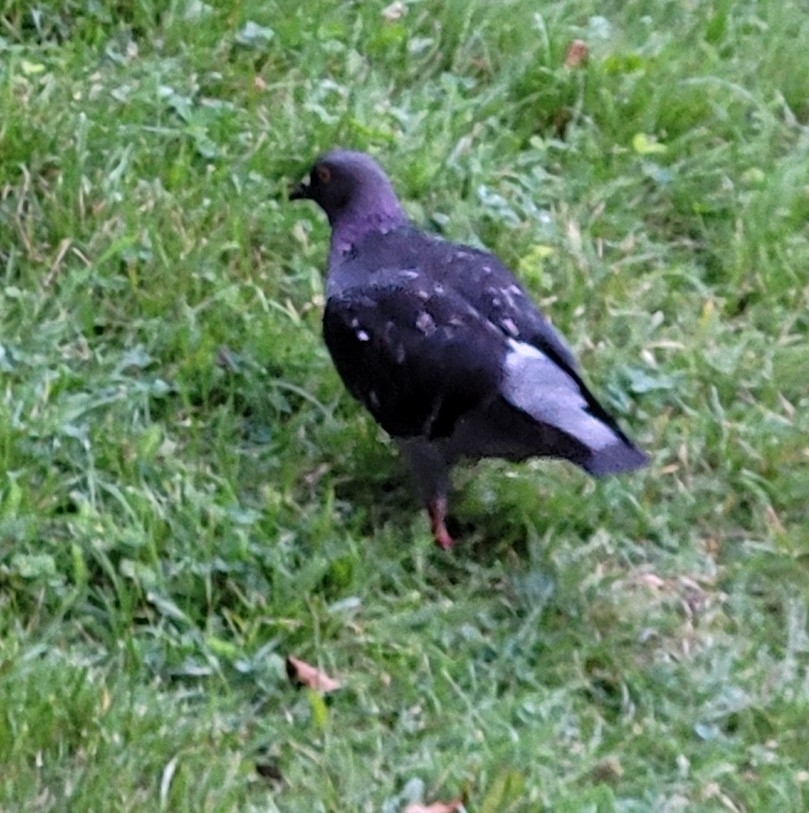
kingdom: Animalia
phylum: Chordata
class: Aves
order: Columbiformes
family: Columbidae
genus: Columba
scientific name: Columba livia
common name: Rock pigeon
